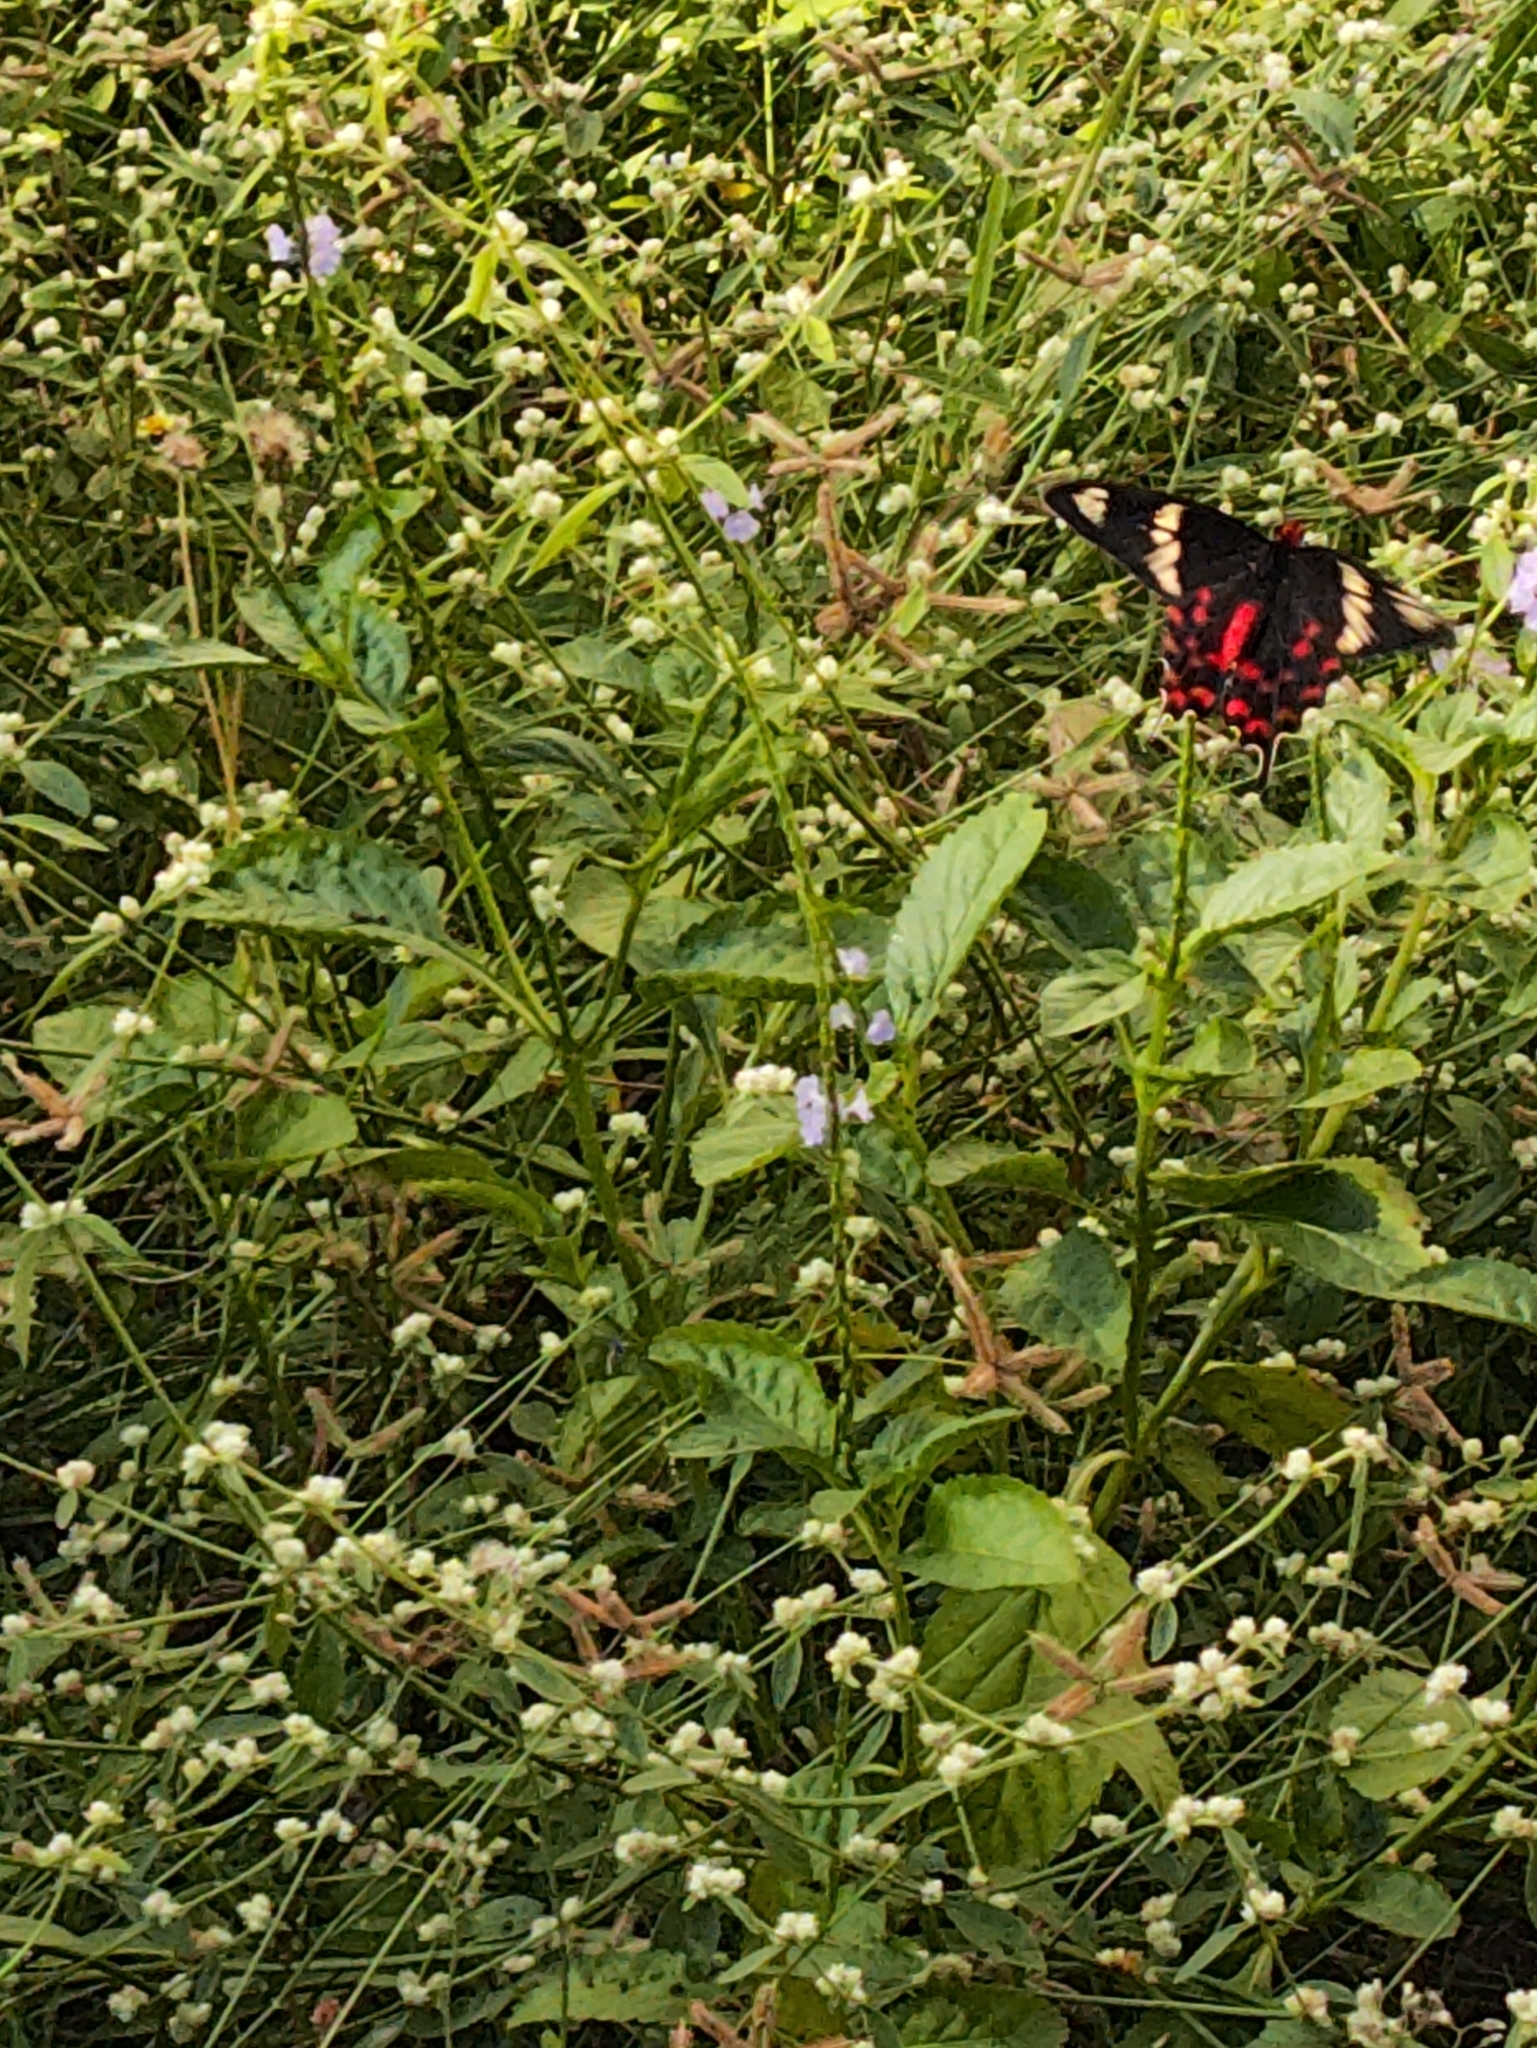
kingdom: Animalia
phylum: Arthropoda
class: Insecta
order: Lepidoptera
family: Papilionidae
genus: Pachliopta
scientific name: Pachliopta hector
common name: Crimson rose
